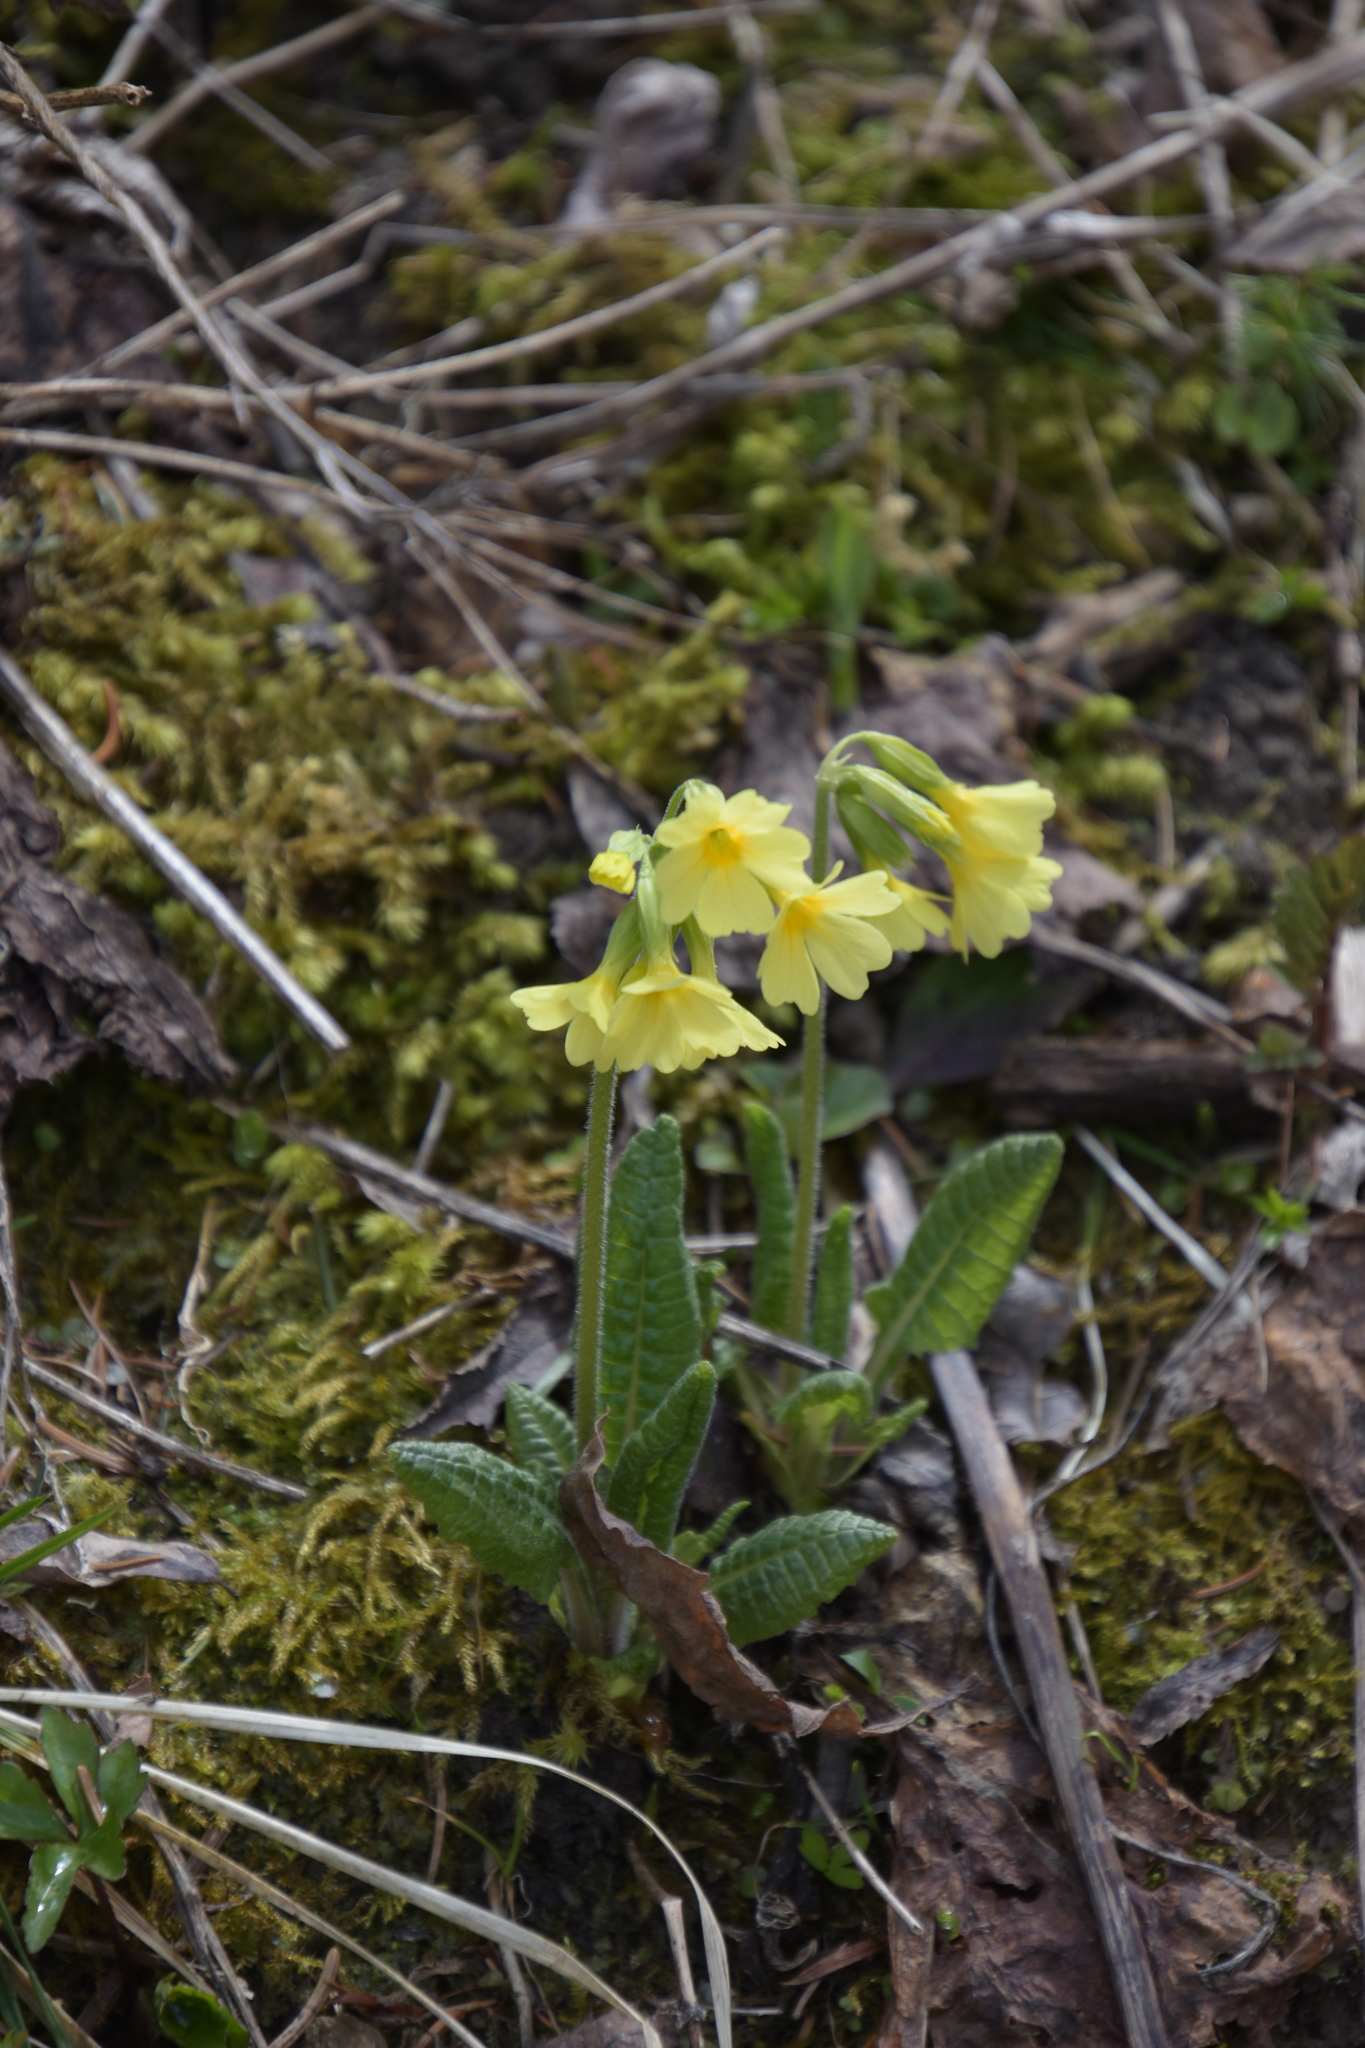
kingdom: Plantae
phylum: Tracheophyta
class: Magnoliopsida
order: Ericales
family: Primulaceae
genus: Primula
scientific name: Primula elatior
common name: Oxlip
